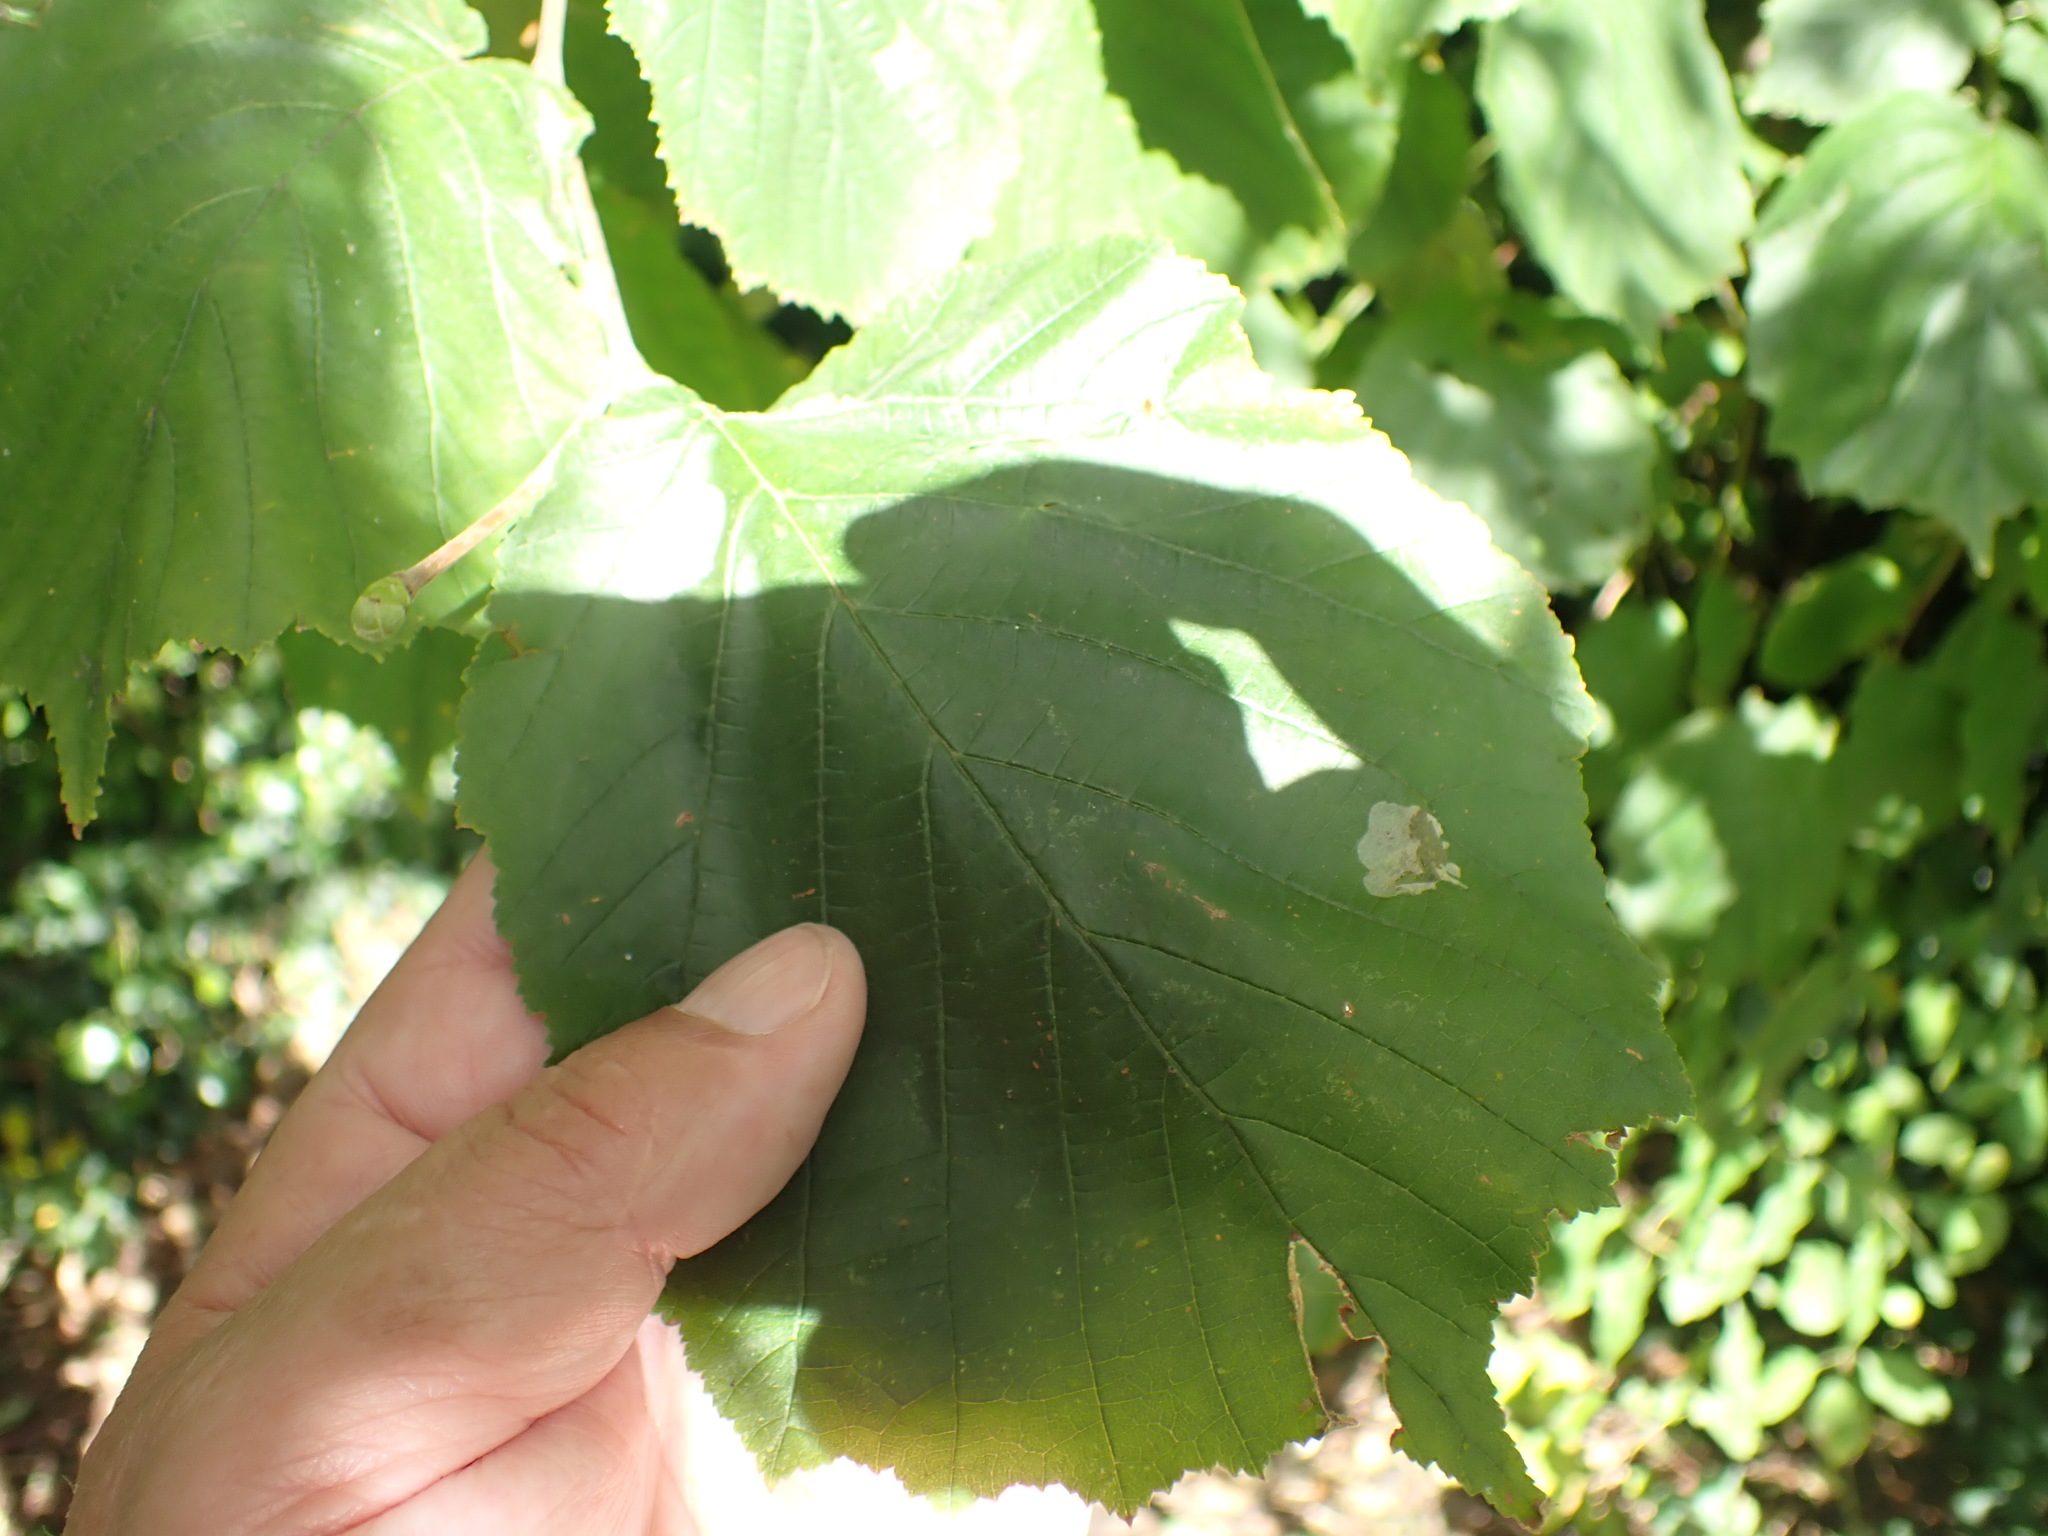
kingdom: Plantae
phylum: Tracheophyta
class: Magnoliopsida
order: Fagales
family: Betulaceae
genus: Corylus
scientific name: Corylus avellana
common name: European hazel
